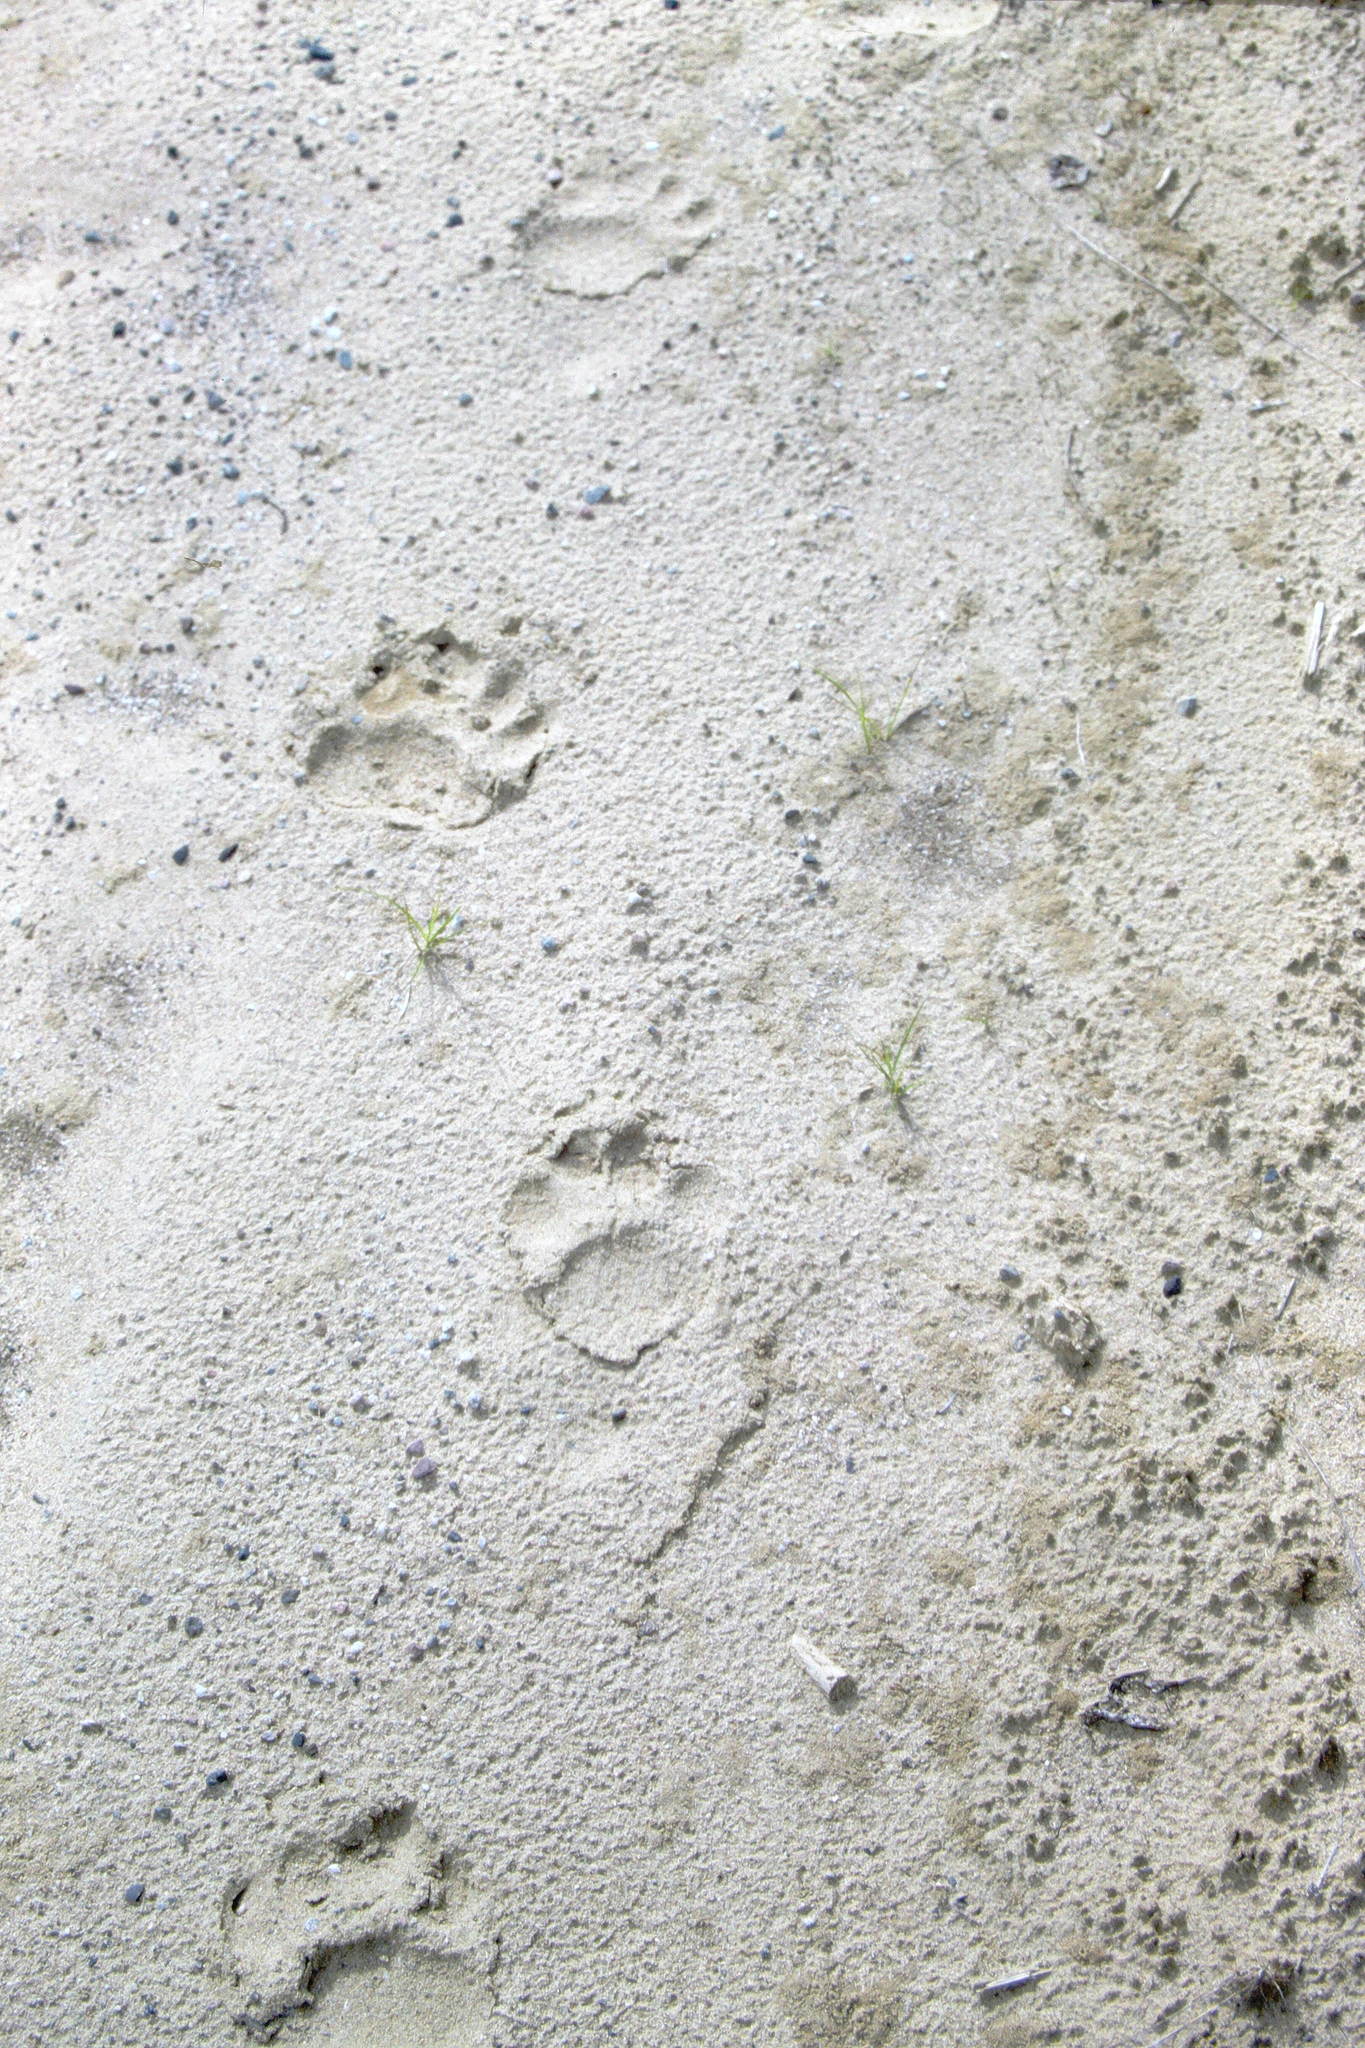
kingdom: Animalia
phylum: Chordata
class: Mammalia
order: Carnivora
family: Ursidae
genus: Ursus
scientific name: Ursus americanus
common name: American black bear
